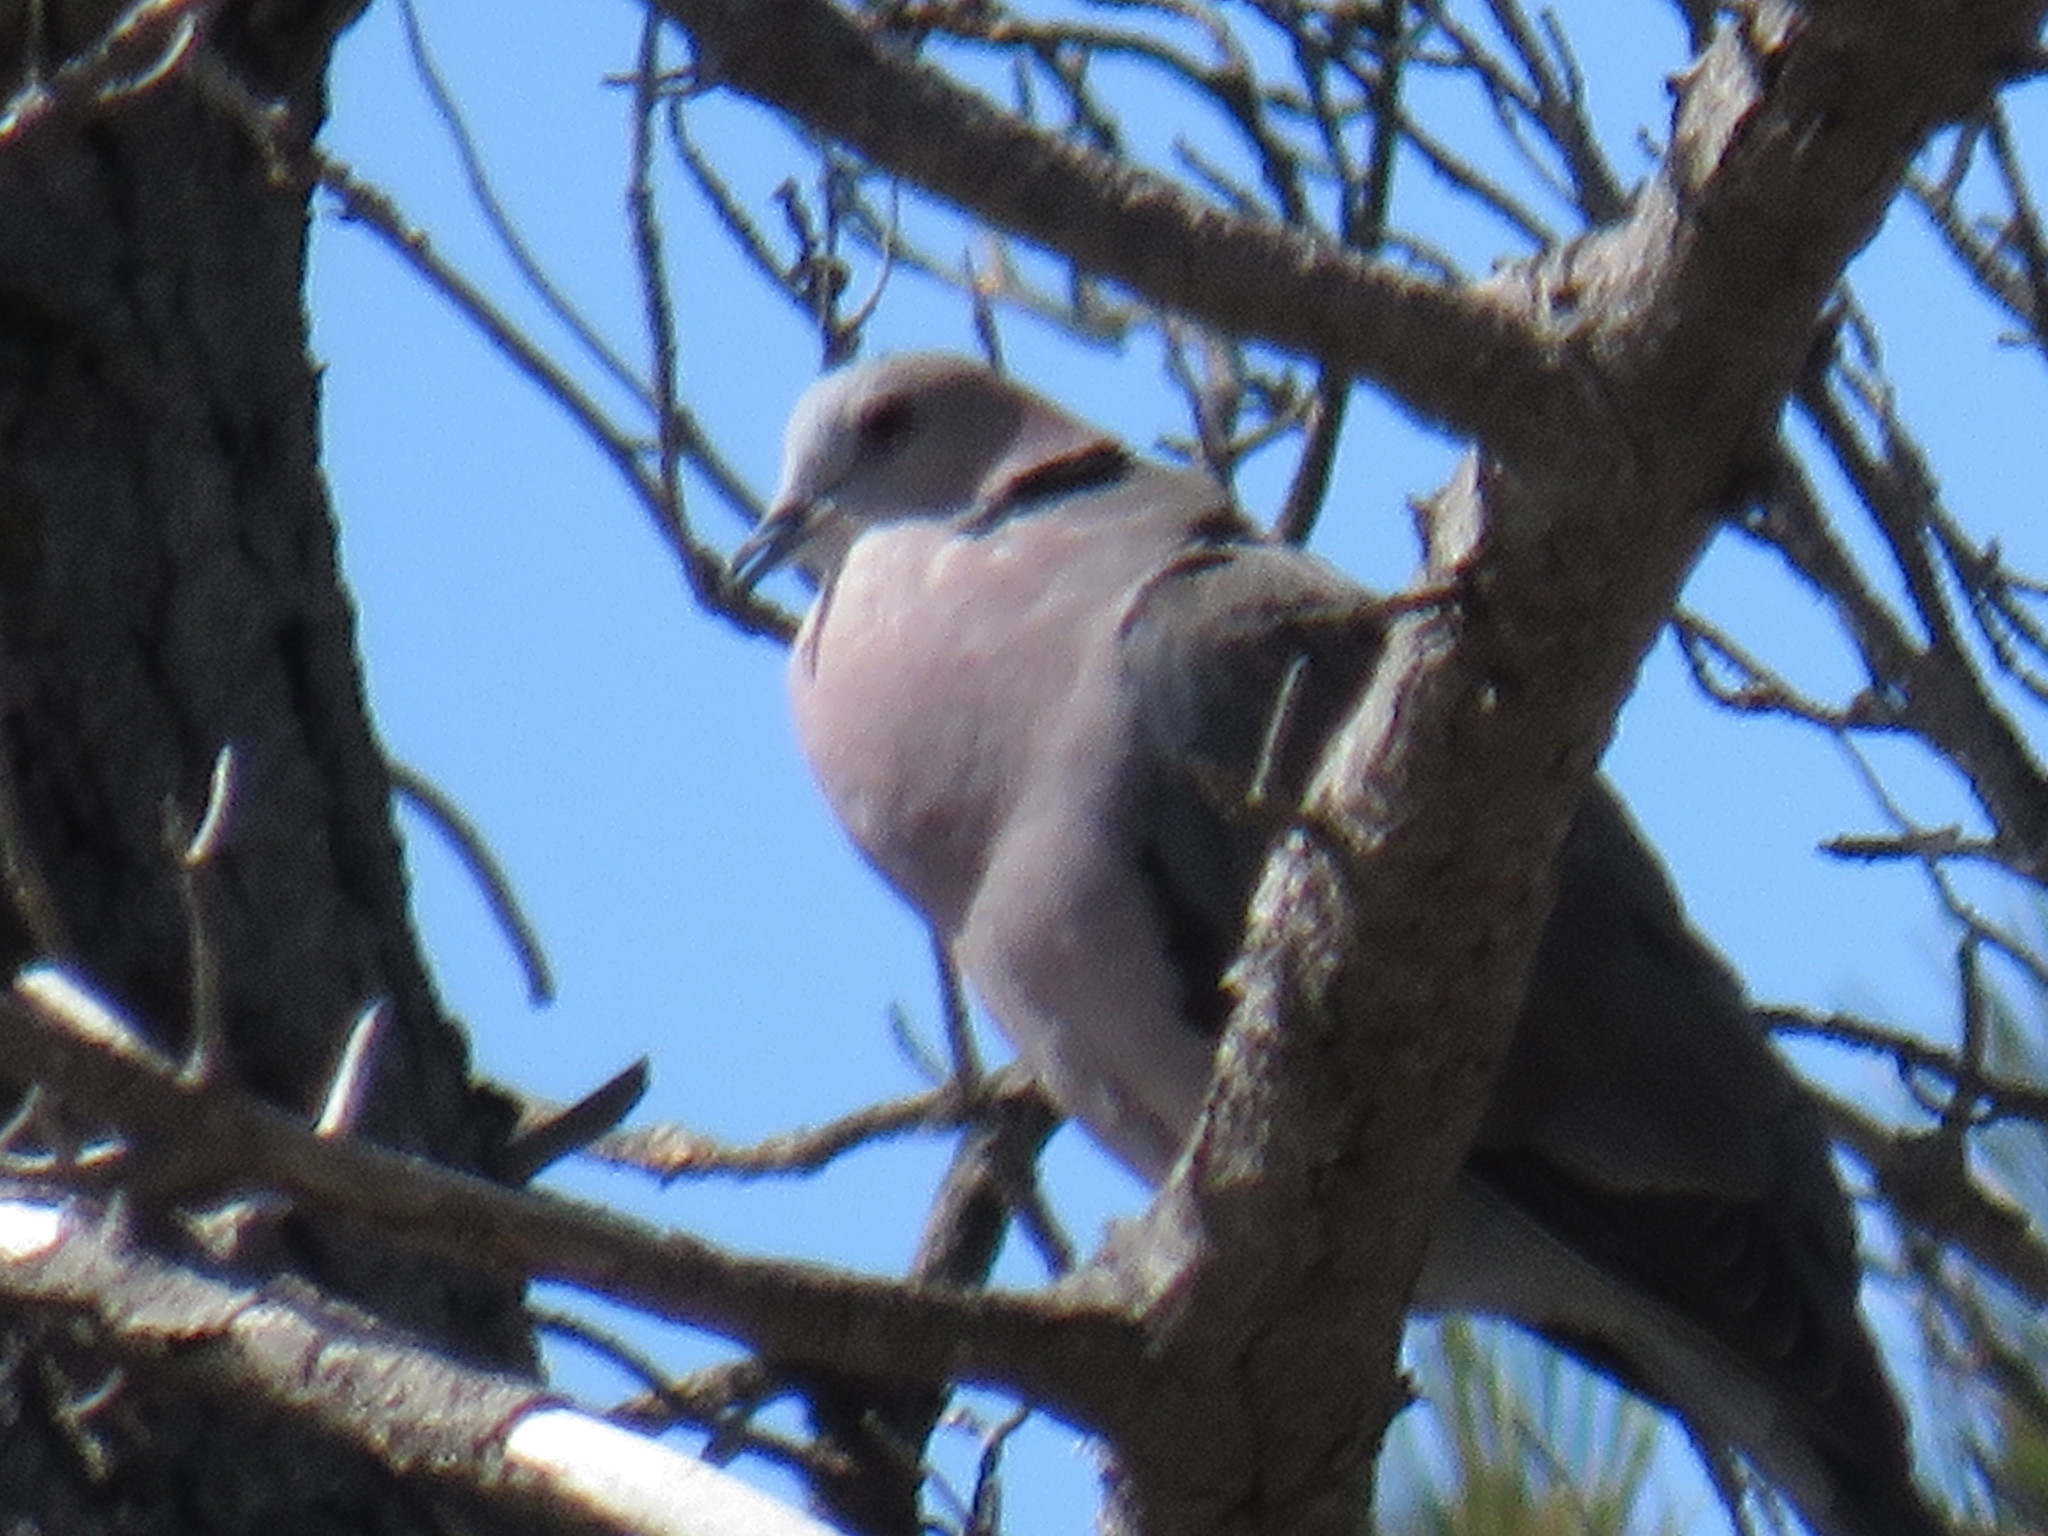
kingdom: Animalia
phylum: Chordata
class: Aves
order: Columbiformes
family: Columbidae
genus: Streptopelia
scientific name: Streptopelia semitorquata
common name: Red-eyed dove
